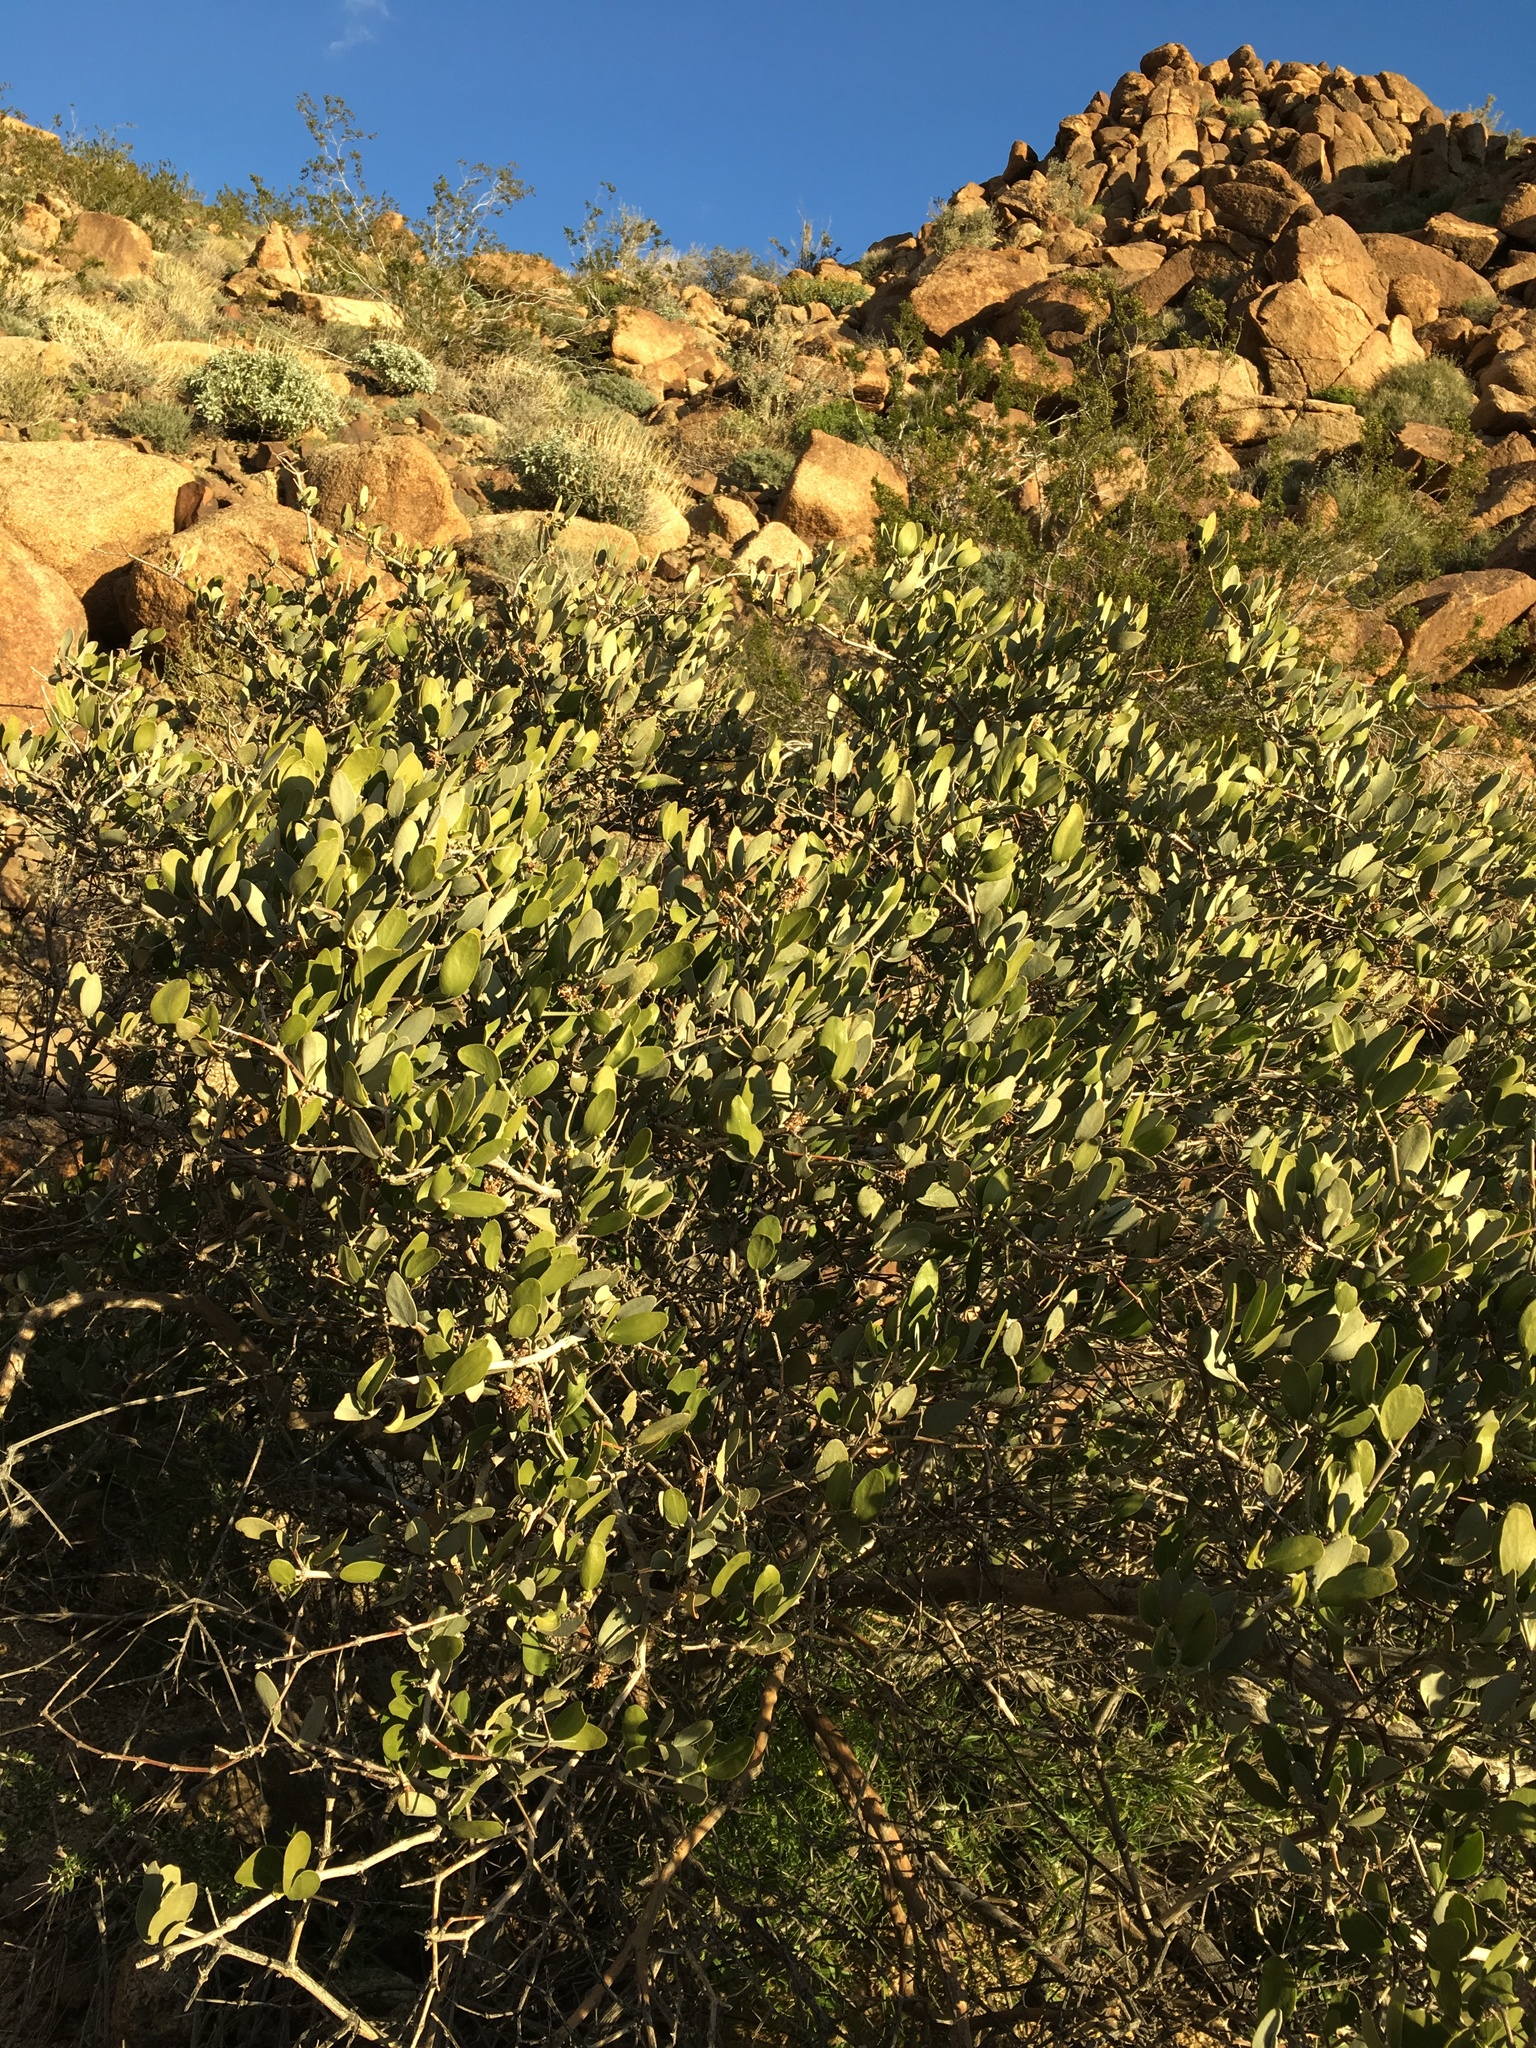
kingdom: Plantae
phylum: Tracheophyta
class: Magnoliopsida
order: Caryophyllales
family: Simmondsiaceae
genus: Simmondsia
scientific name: Simmondsia chinensis
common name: Jojoba
